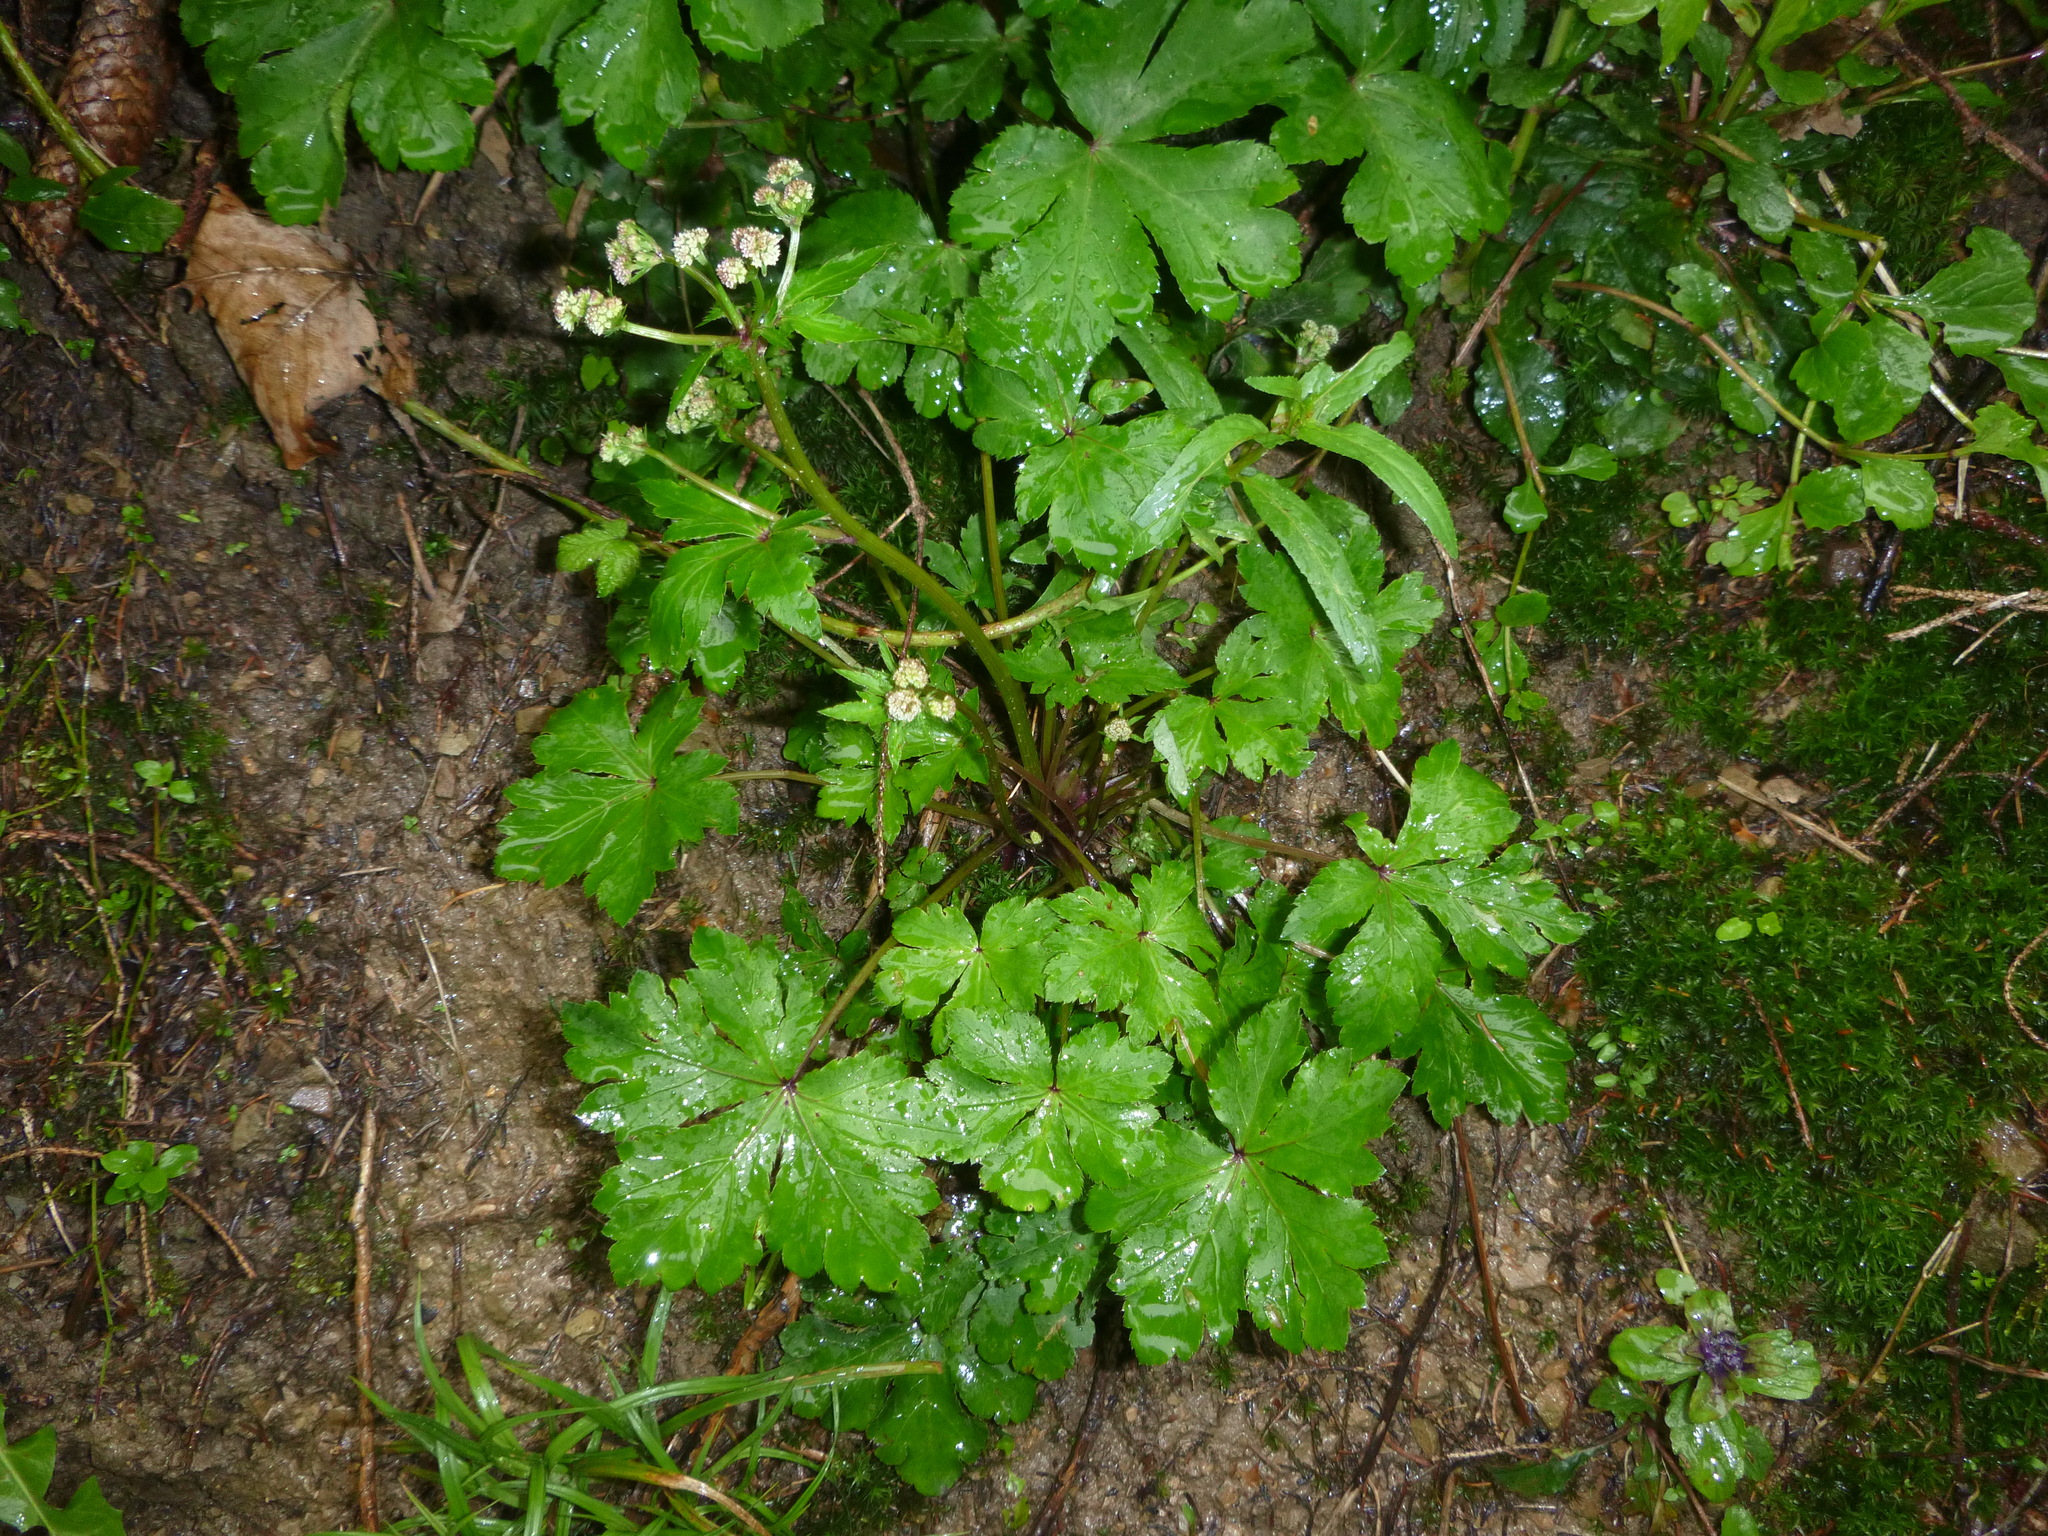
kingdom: Plantae
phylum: Tracheophyta
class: Magnoliopsida
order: Apiales
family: Apiaceae
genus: Sanicula
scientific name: Sanicula europaea
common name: Sanicle
